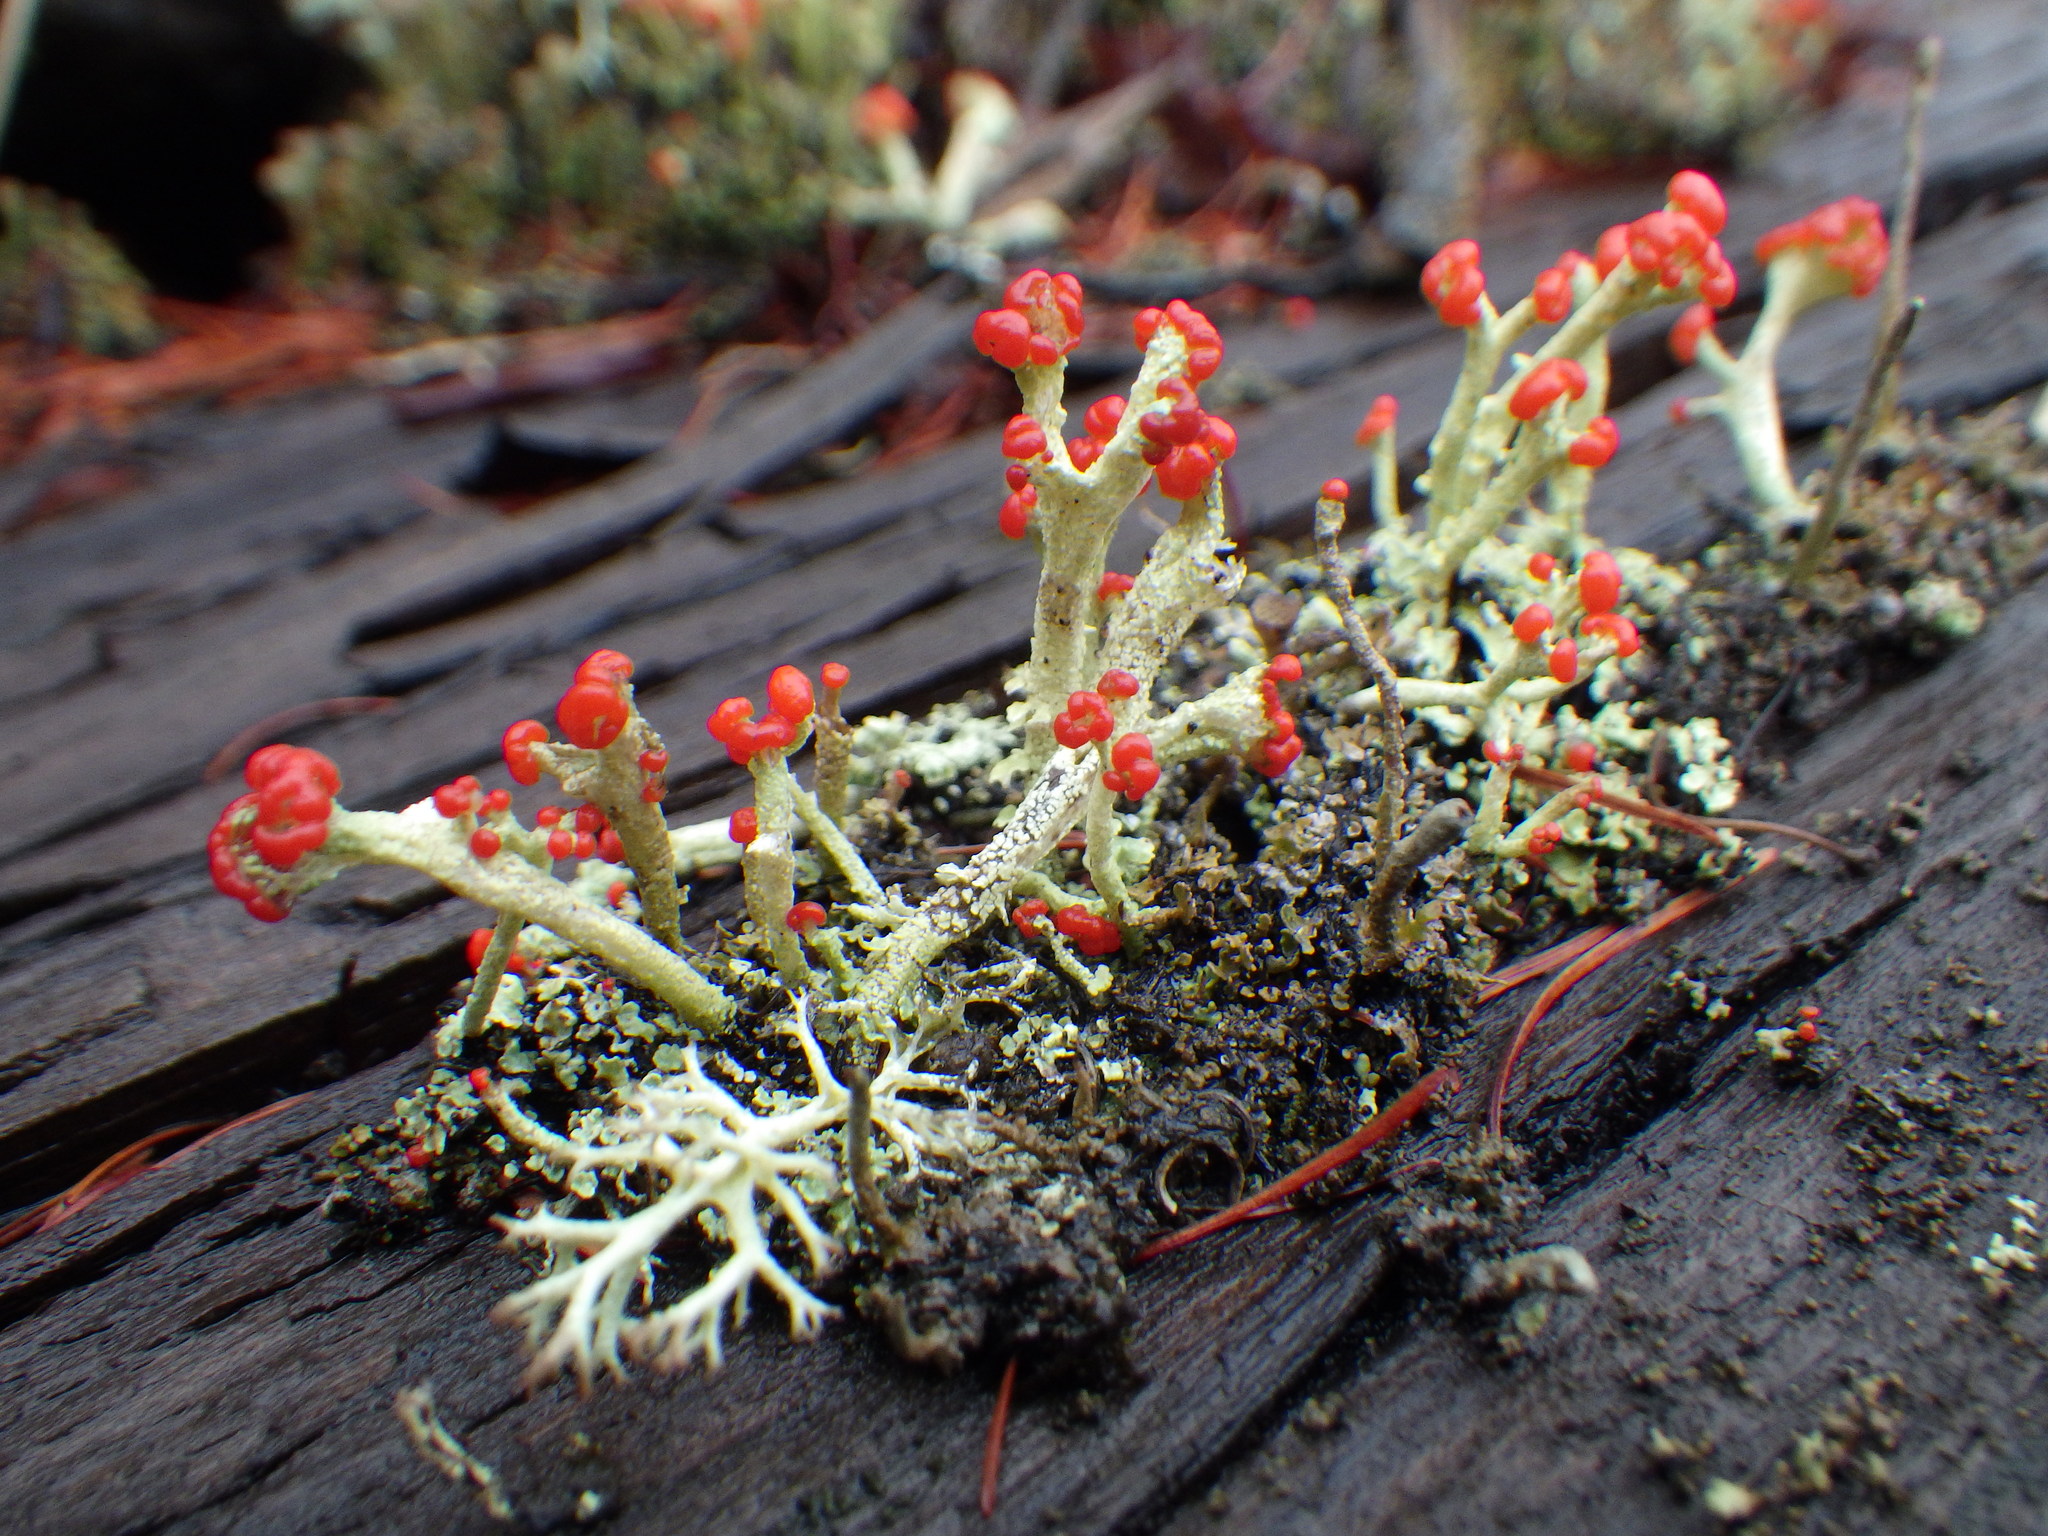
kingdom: Fungi
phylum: Ascomycota
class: Lecanoromycetes
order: Lecanorales
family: Cladoniaceae
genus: Cladonia
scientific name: Cladonia cristatella
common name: British soldier lichen
